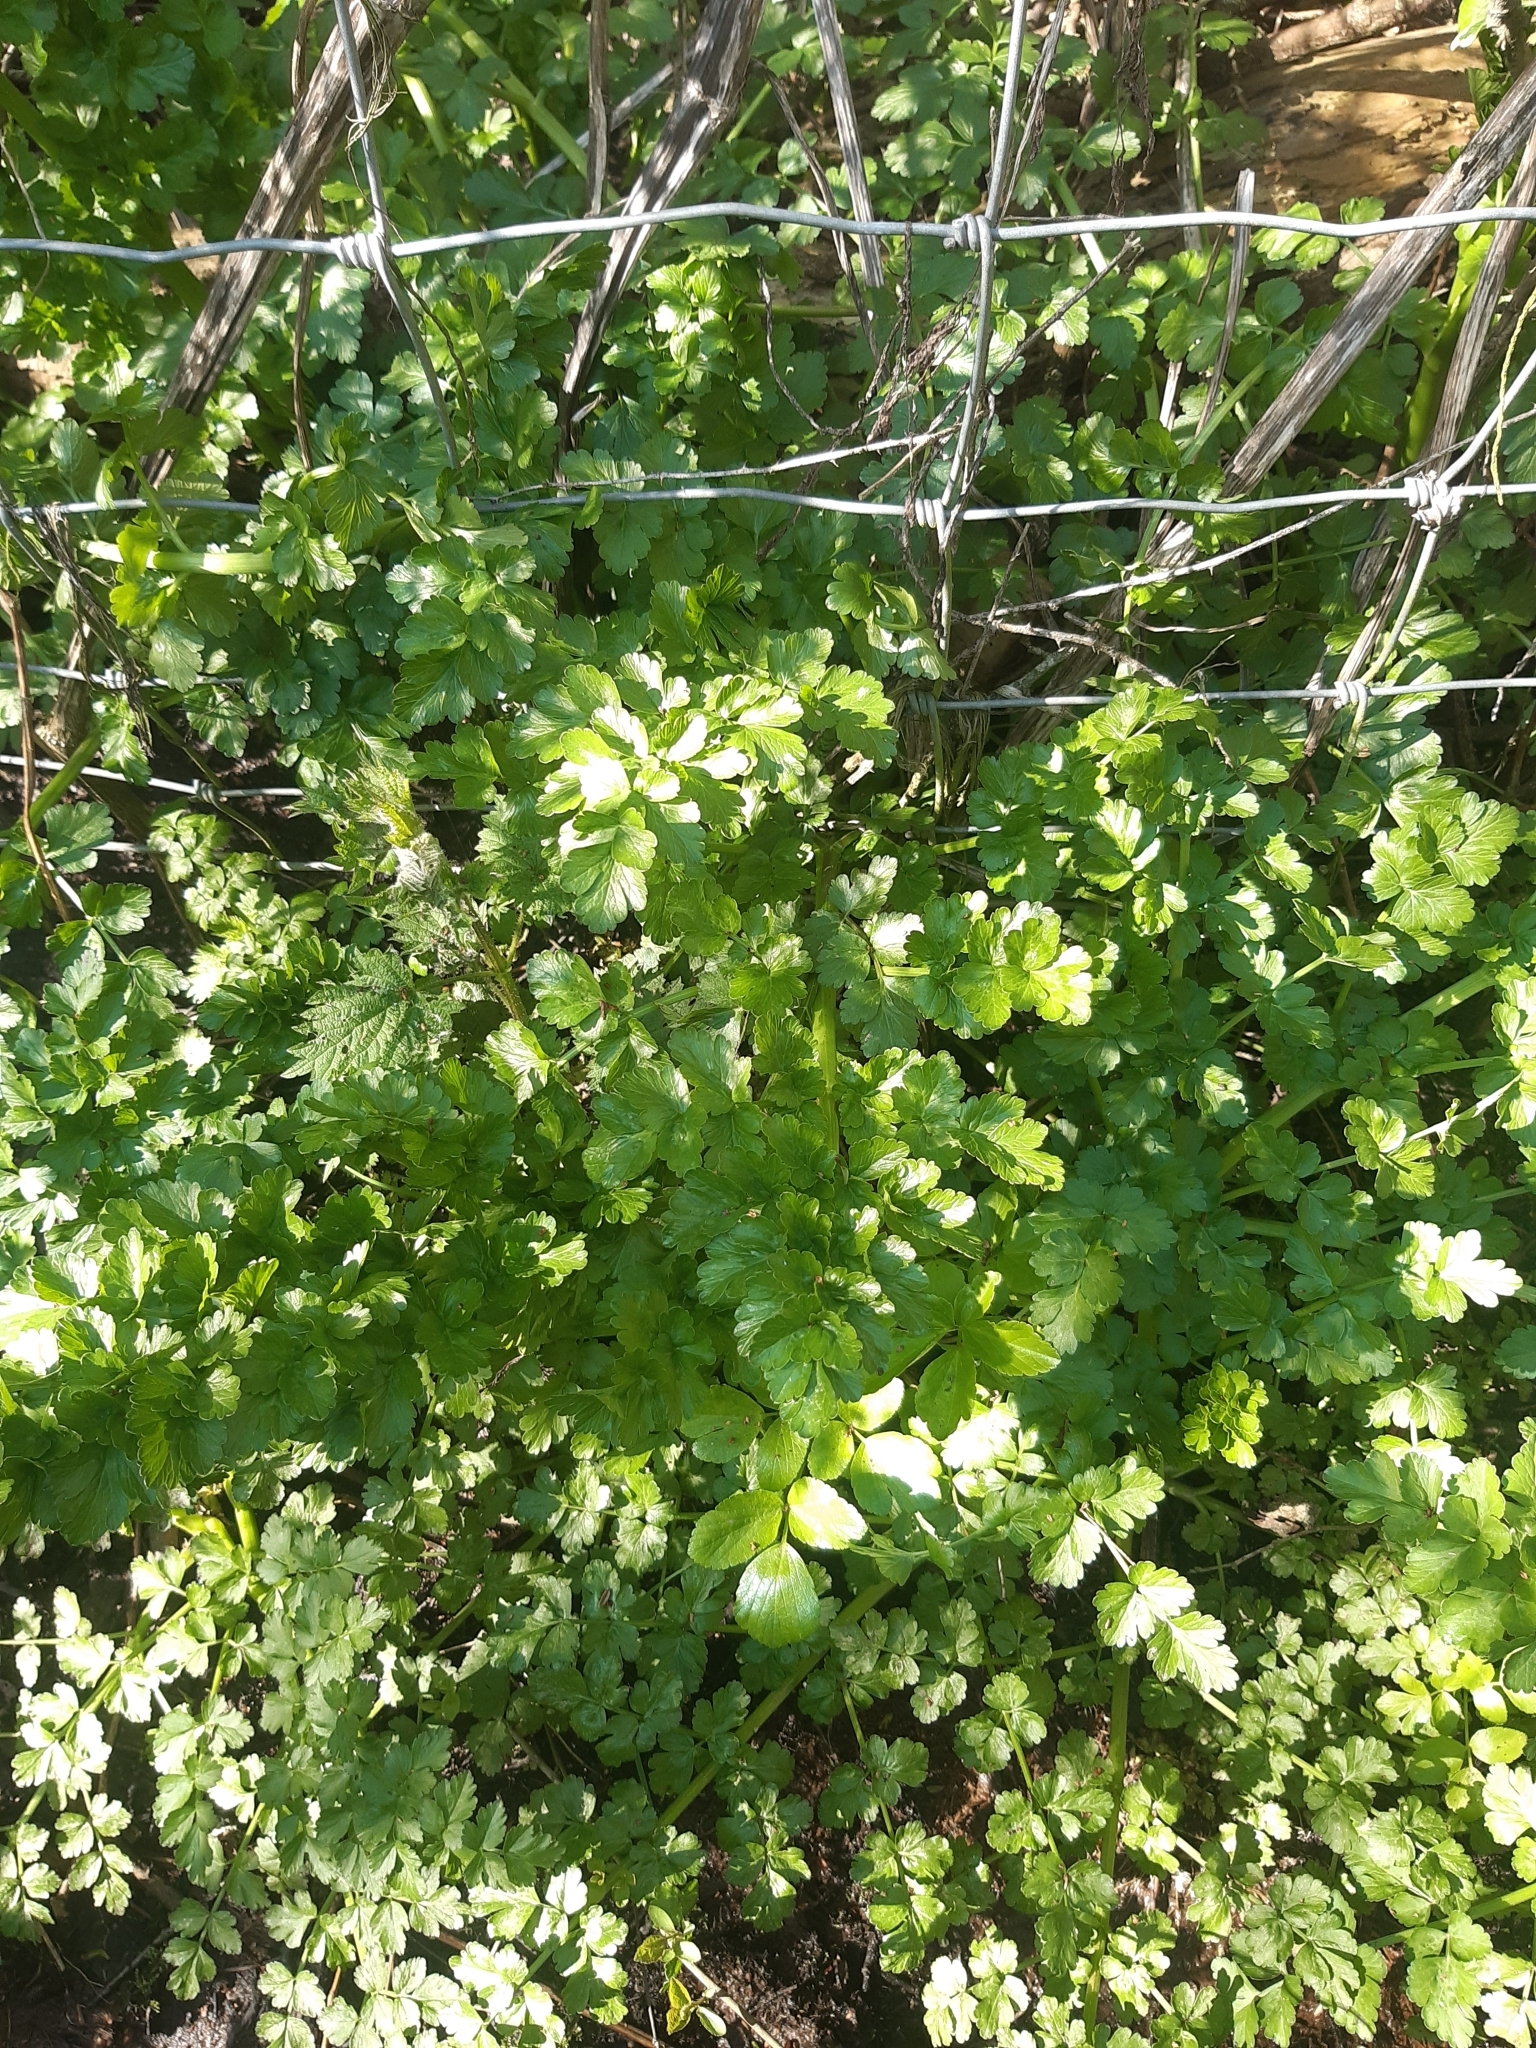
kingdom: Plantae
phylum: Tracheophyta
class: Magnoliopsida
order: Apiales
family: Apiaceae
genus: Oenanthe
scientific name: Oenanthe crocata
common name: Hemlock water-dropwort
